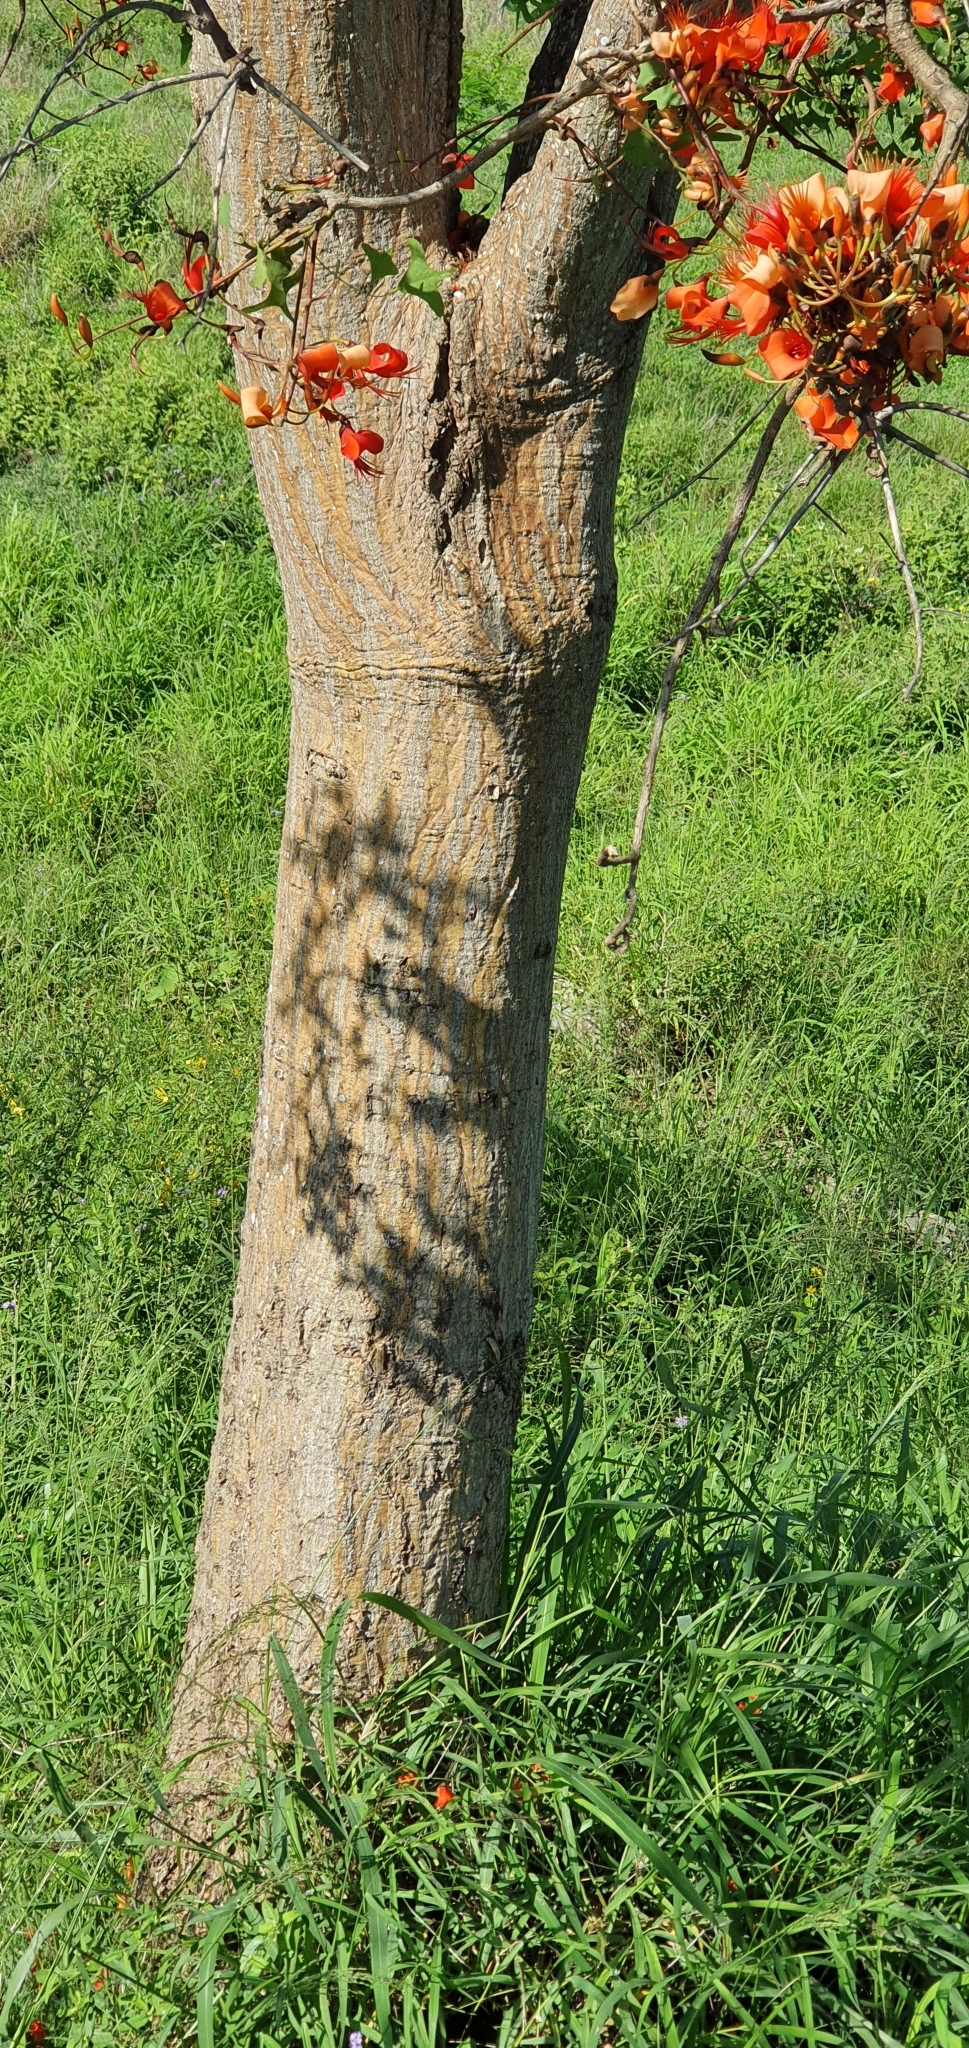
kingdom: Plantae
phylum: Tracheophyta
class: Magnoliopsida
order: Fabales
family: Fabaceae
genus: Erythrina
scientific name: Erythrina vespertilio
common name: Bat-wing coral tree
